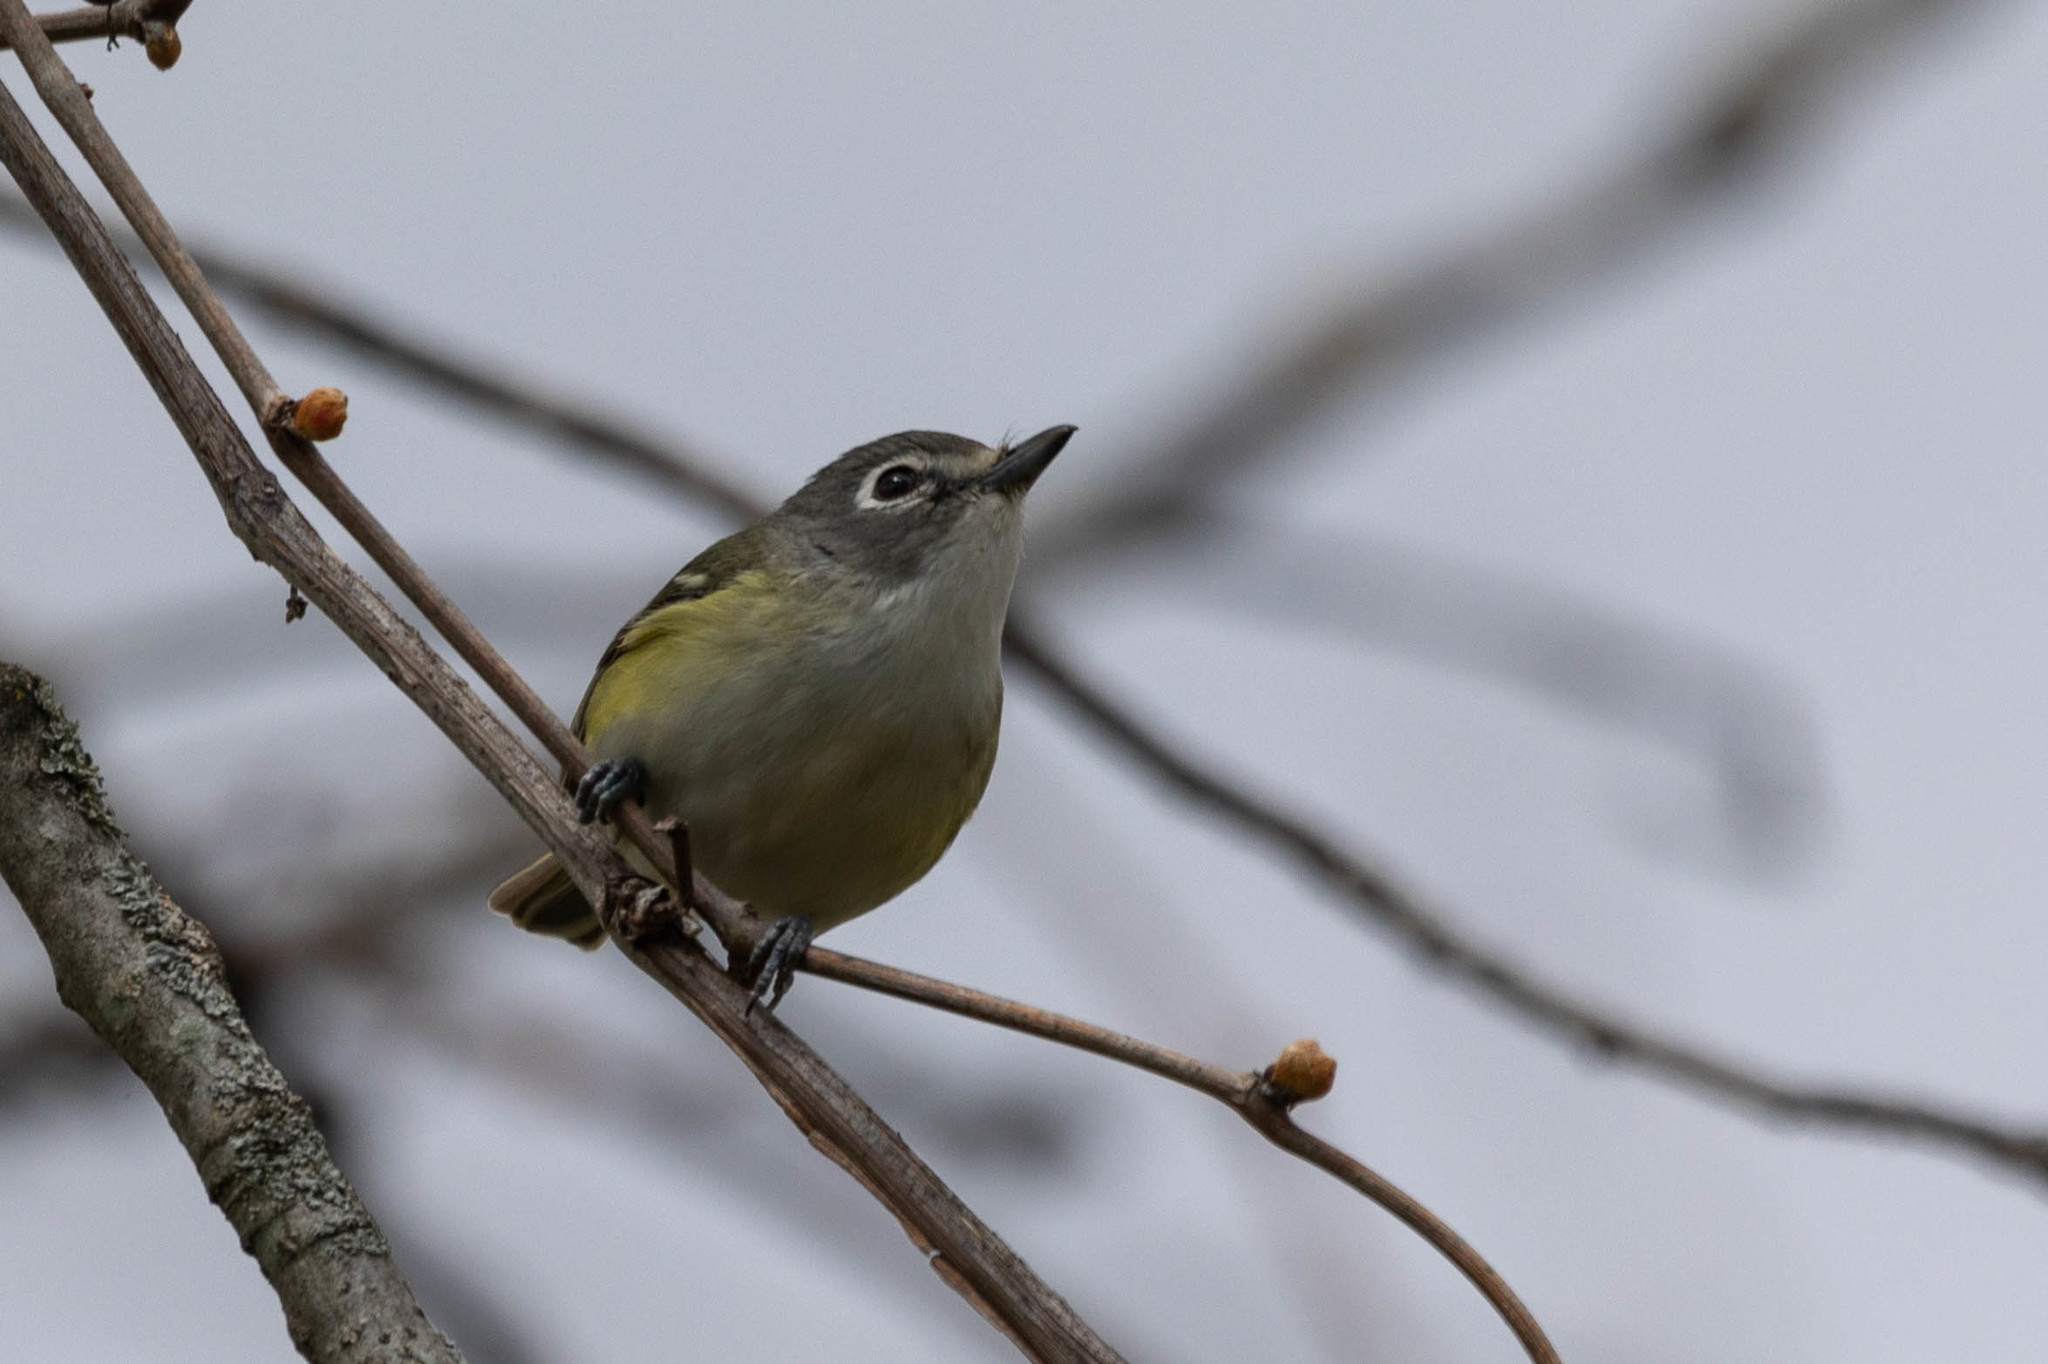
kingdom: Animalia
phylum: Chordata
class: Aves
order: Passeriformes
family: Vireonidae
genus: Vireo
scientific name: Vireo solitarius
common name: Blue-headed vireo
